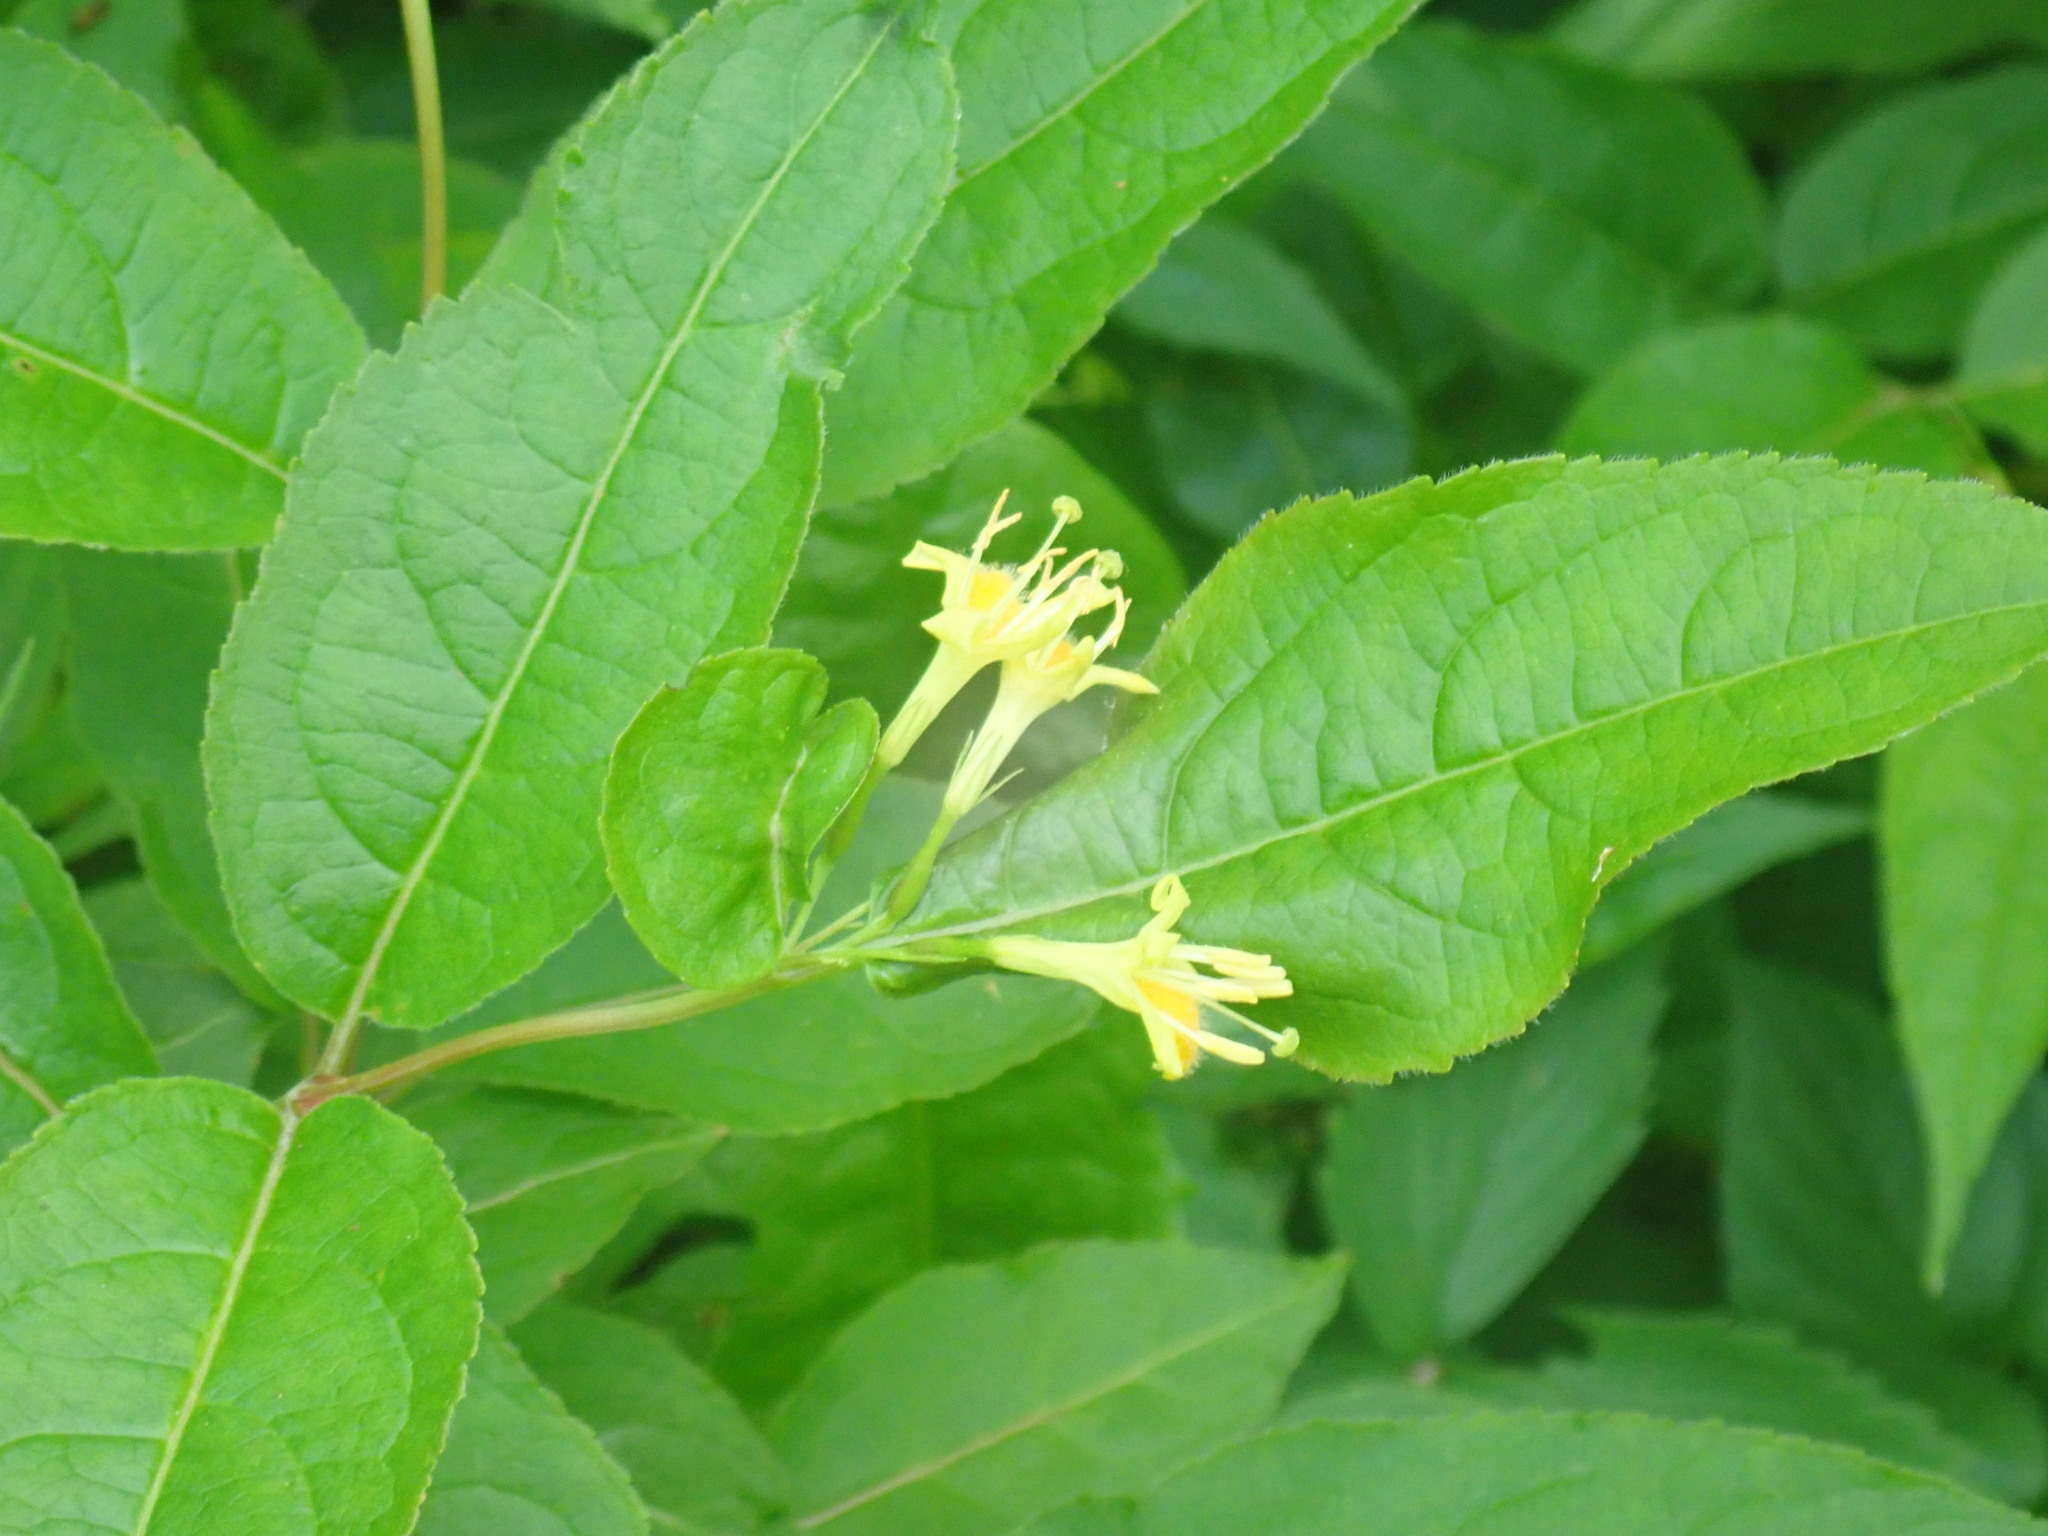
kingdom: Plantae
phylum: Tracheophyta
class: Magnoliopsida
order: Dipsacales
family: Caprifoliaceae
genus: Diervilla
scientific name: Diervilla lonicera
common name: Bush-honeysuckle
